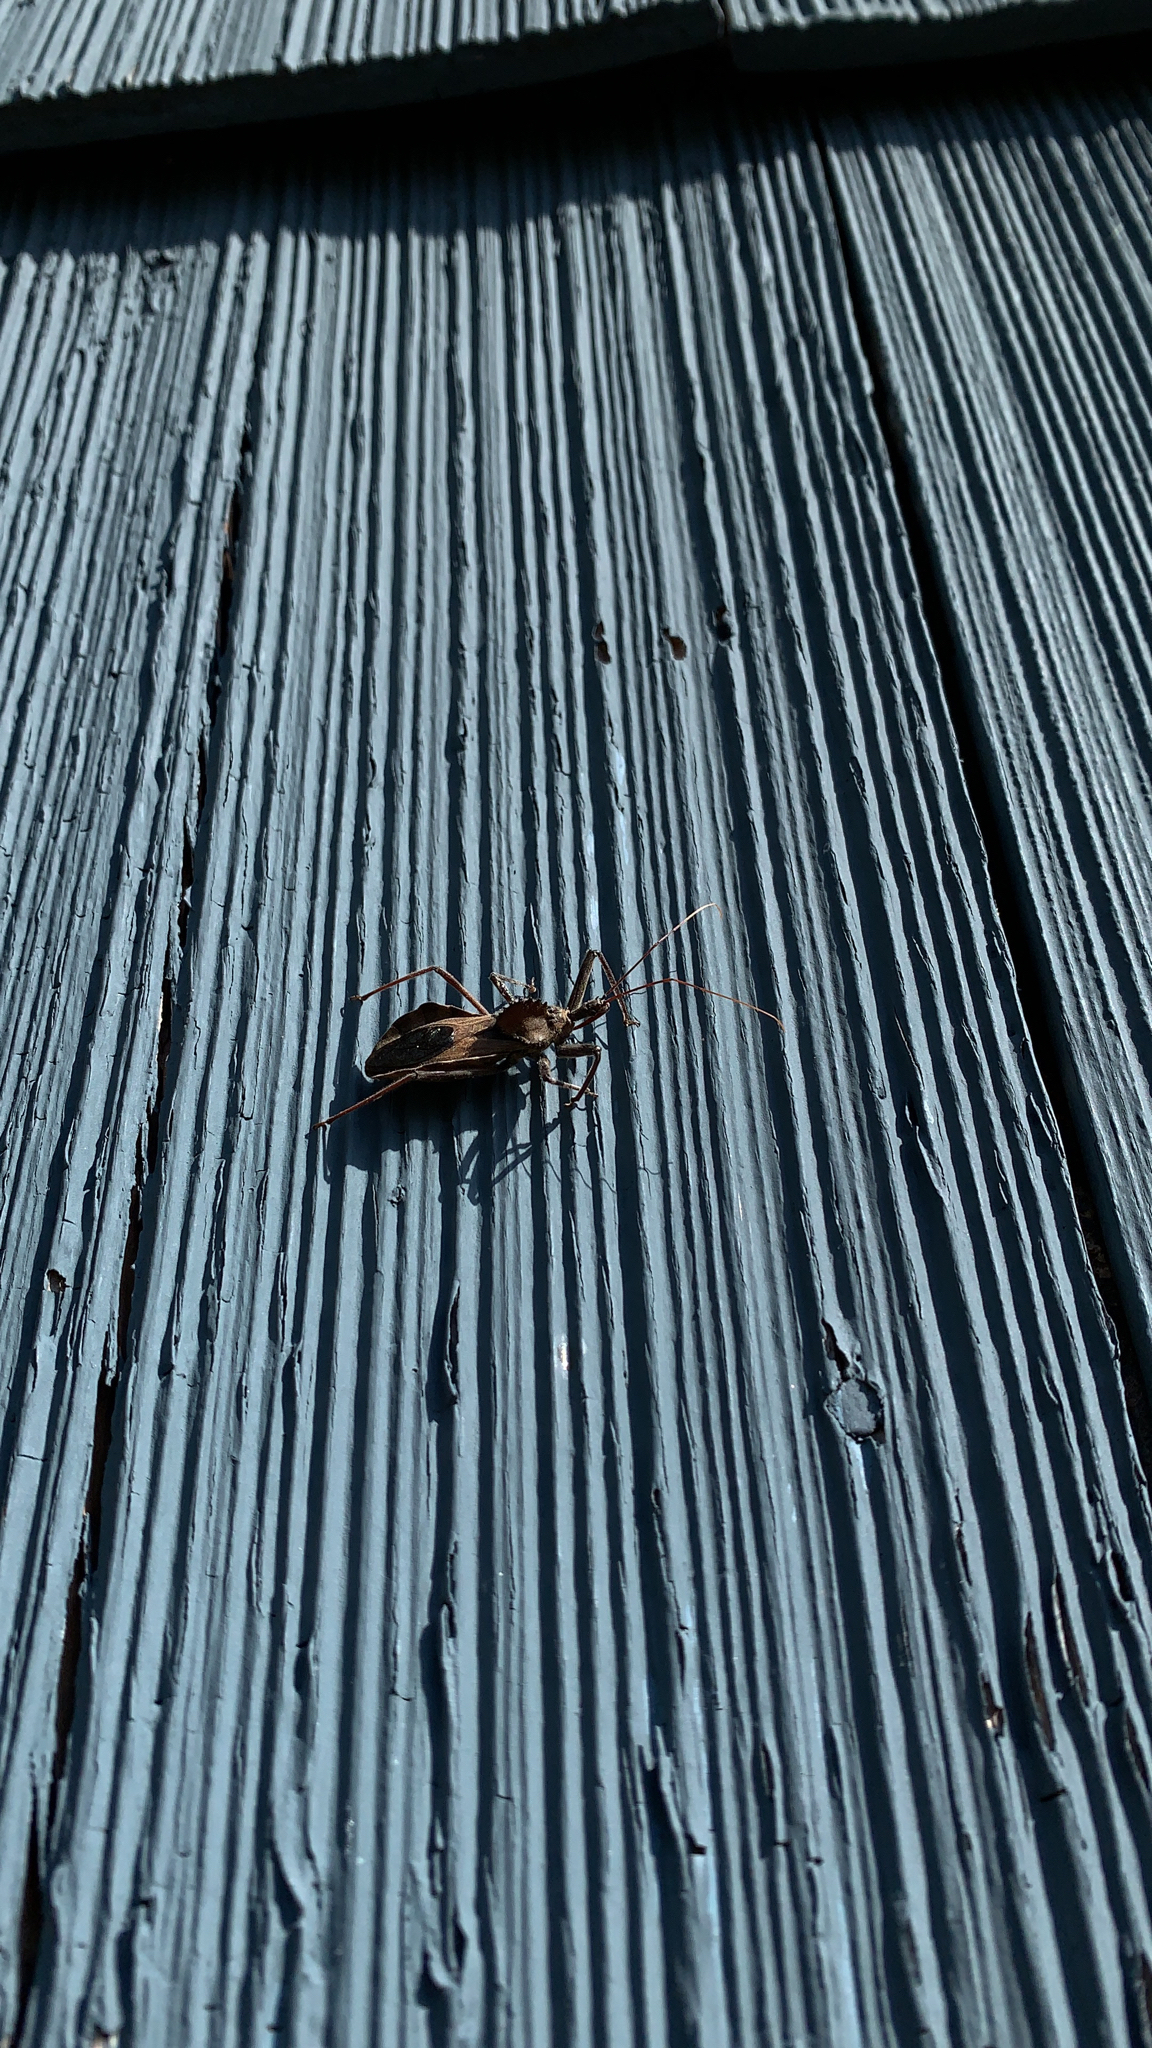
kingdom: Animalia
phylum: Arthropoda
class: Insecta
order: Hemiptera
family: Reduviidae
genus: Arilus
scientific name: Arilus cristatus
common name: North american wheel bug
